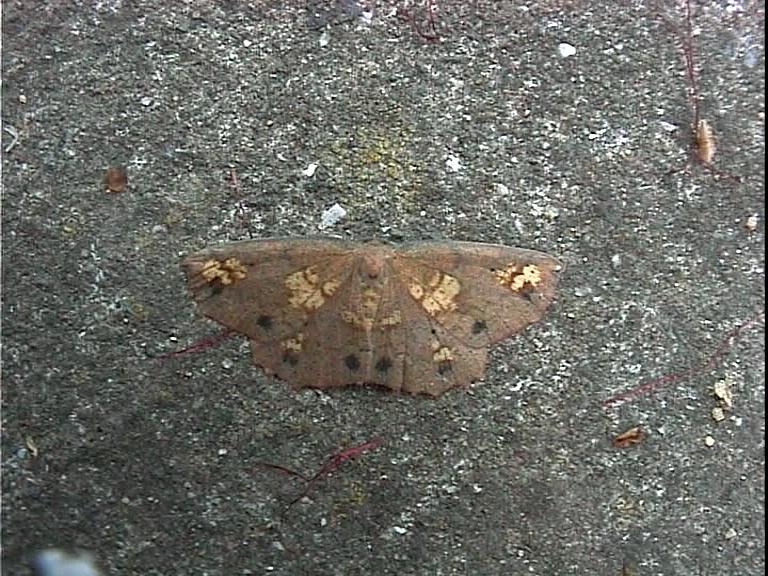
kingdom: Animalia
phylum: Arthropoda
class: Insecta
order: Lepidoptera
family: Geometridae
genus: Xyridacma
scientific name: Xyridacma ustaria
